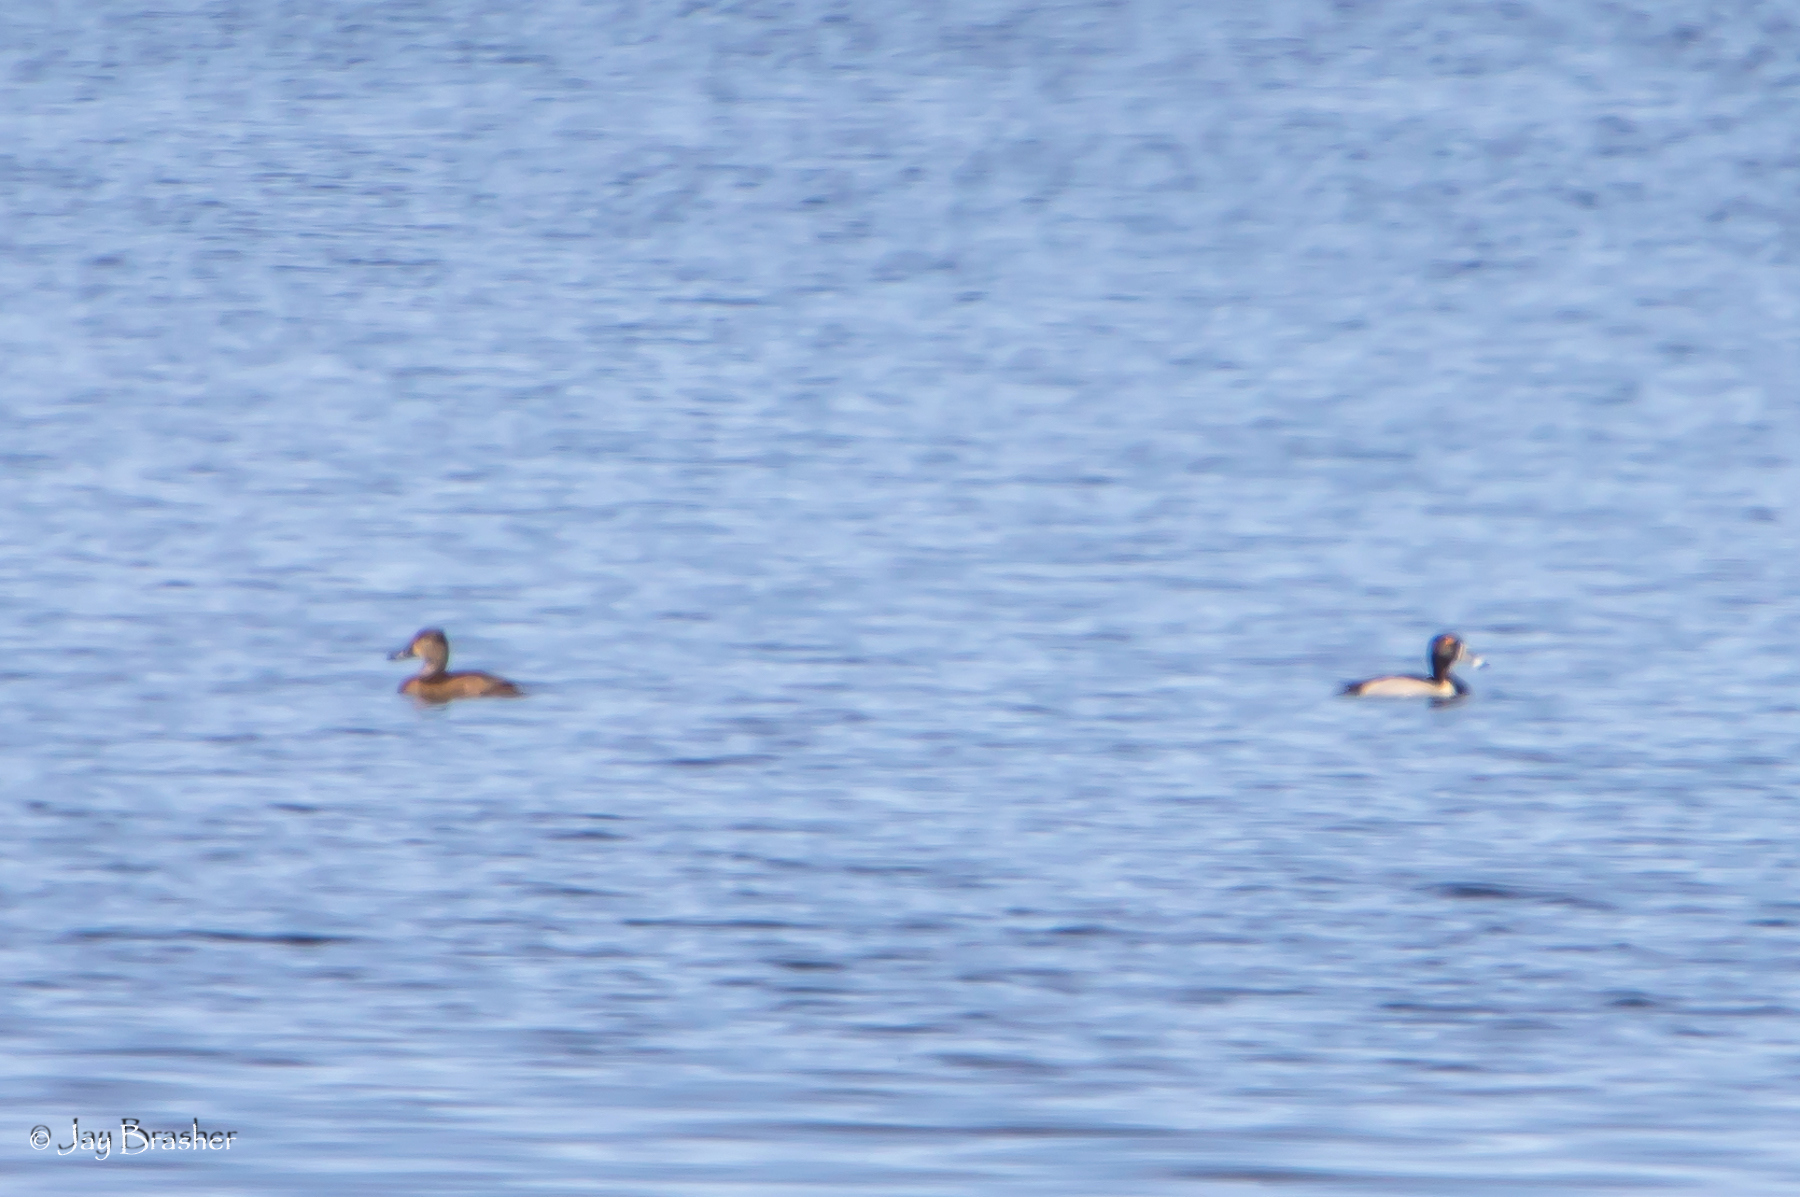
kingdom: Animalia
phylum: Chordata
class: Aves
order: Anseriformes
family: Anatidae
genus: Aythya
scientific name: Aythya collaris
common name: Ring-necked duck
